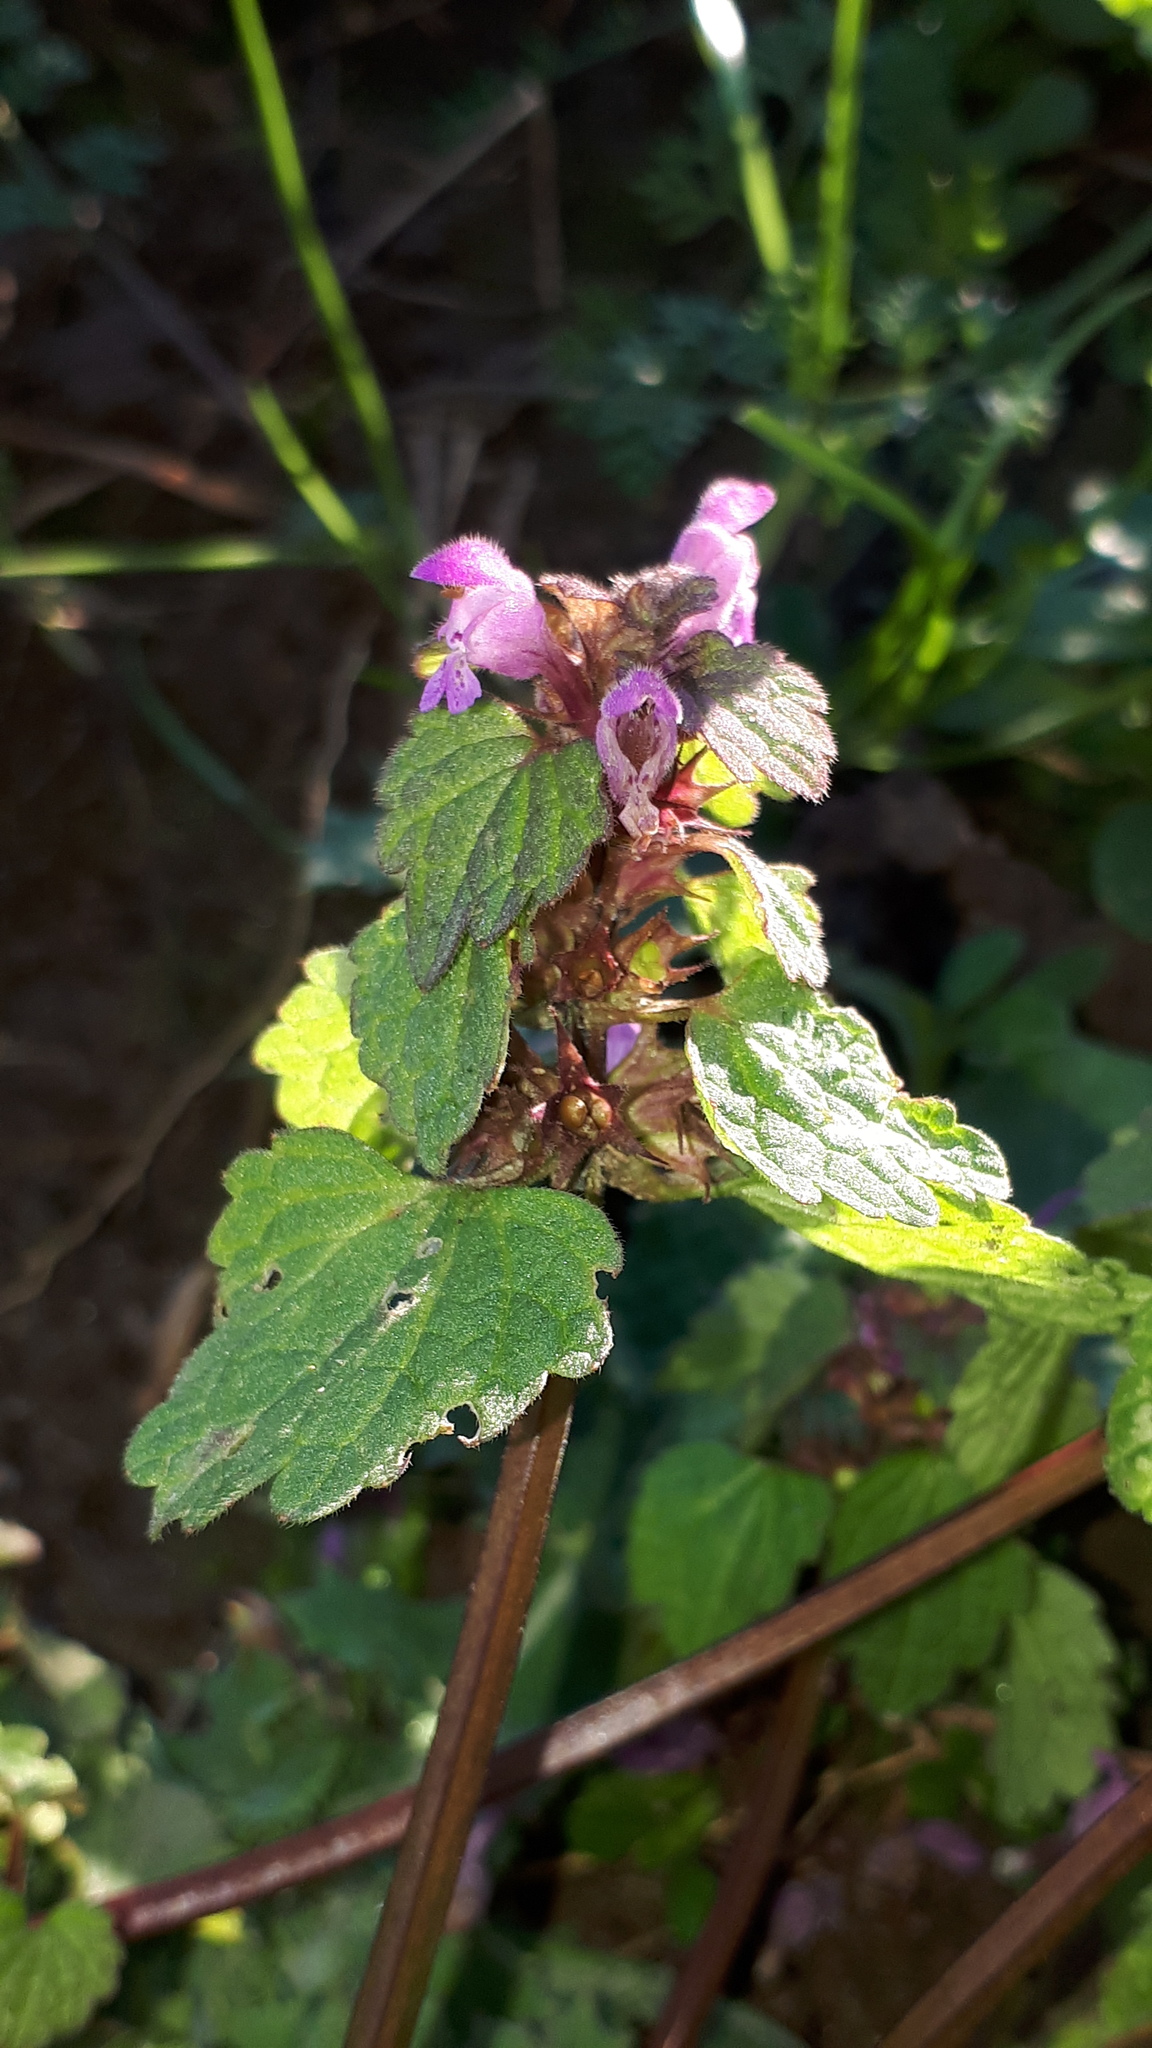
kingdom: Plantae
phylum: Tracheophyta
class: Magnoliopsida
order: Lamiales
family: Lamiaceae
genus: Lamium
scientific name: Lamium purpureum
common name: Red dead-nettle
